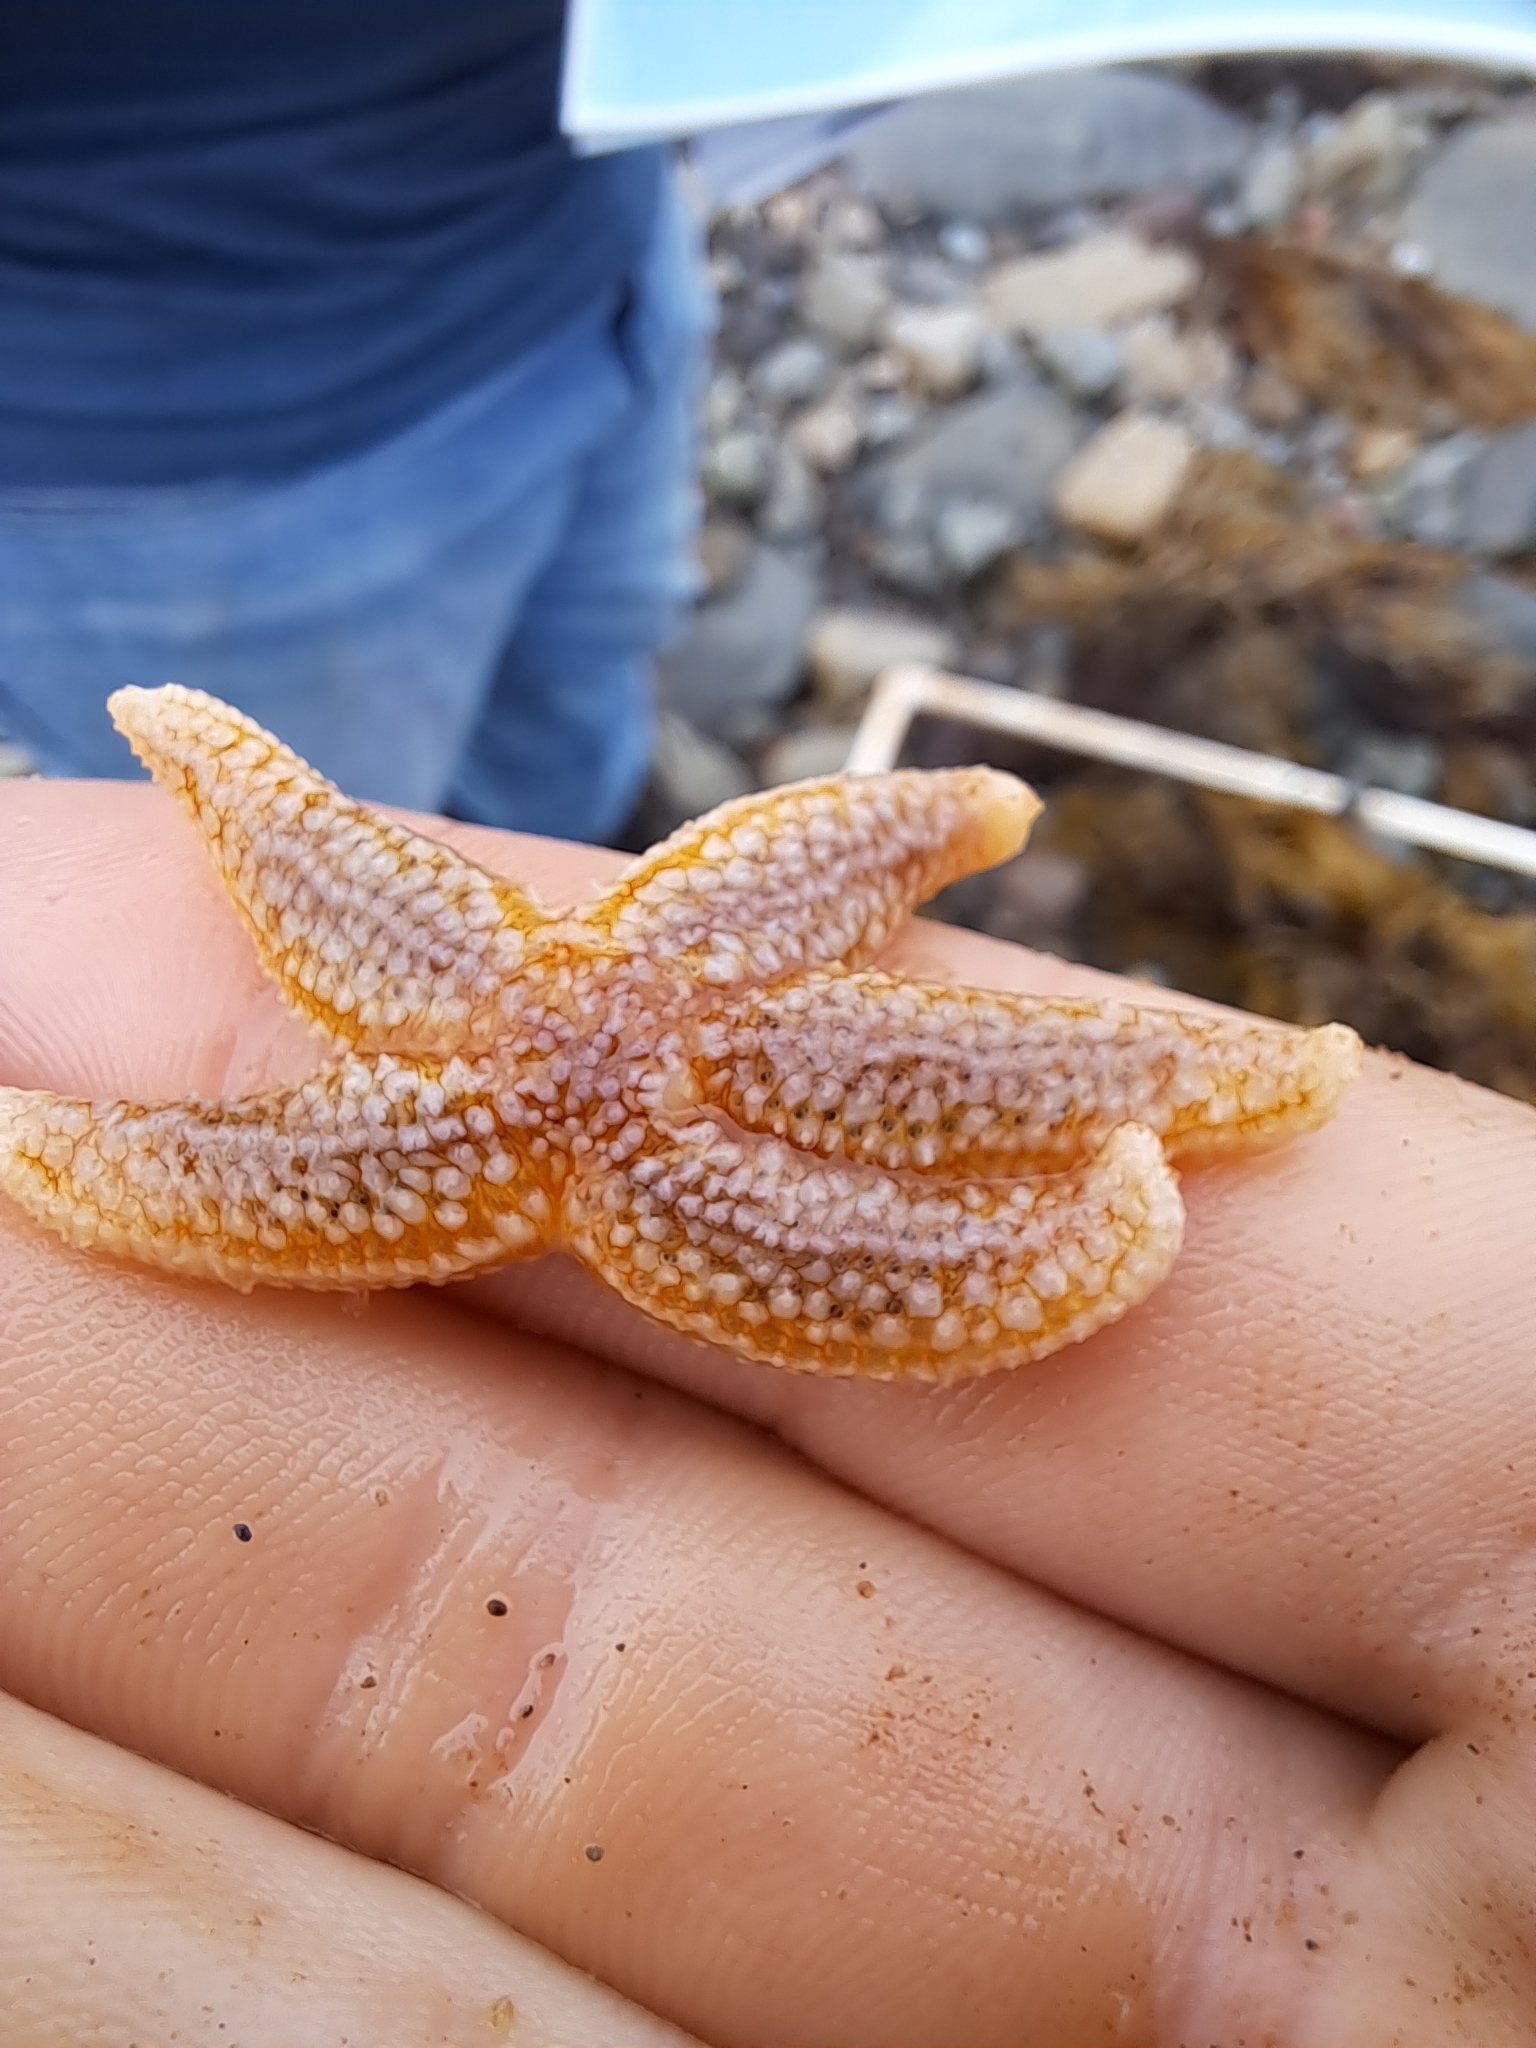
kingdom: Animalia
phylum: Echinodermata
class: Asteroidea
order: Forcipulatida
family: Asteriidae
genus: Asterias
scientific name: Asterias rubens
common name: Common starfish
